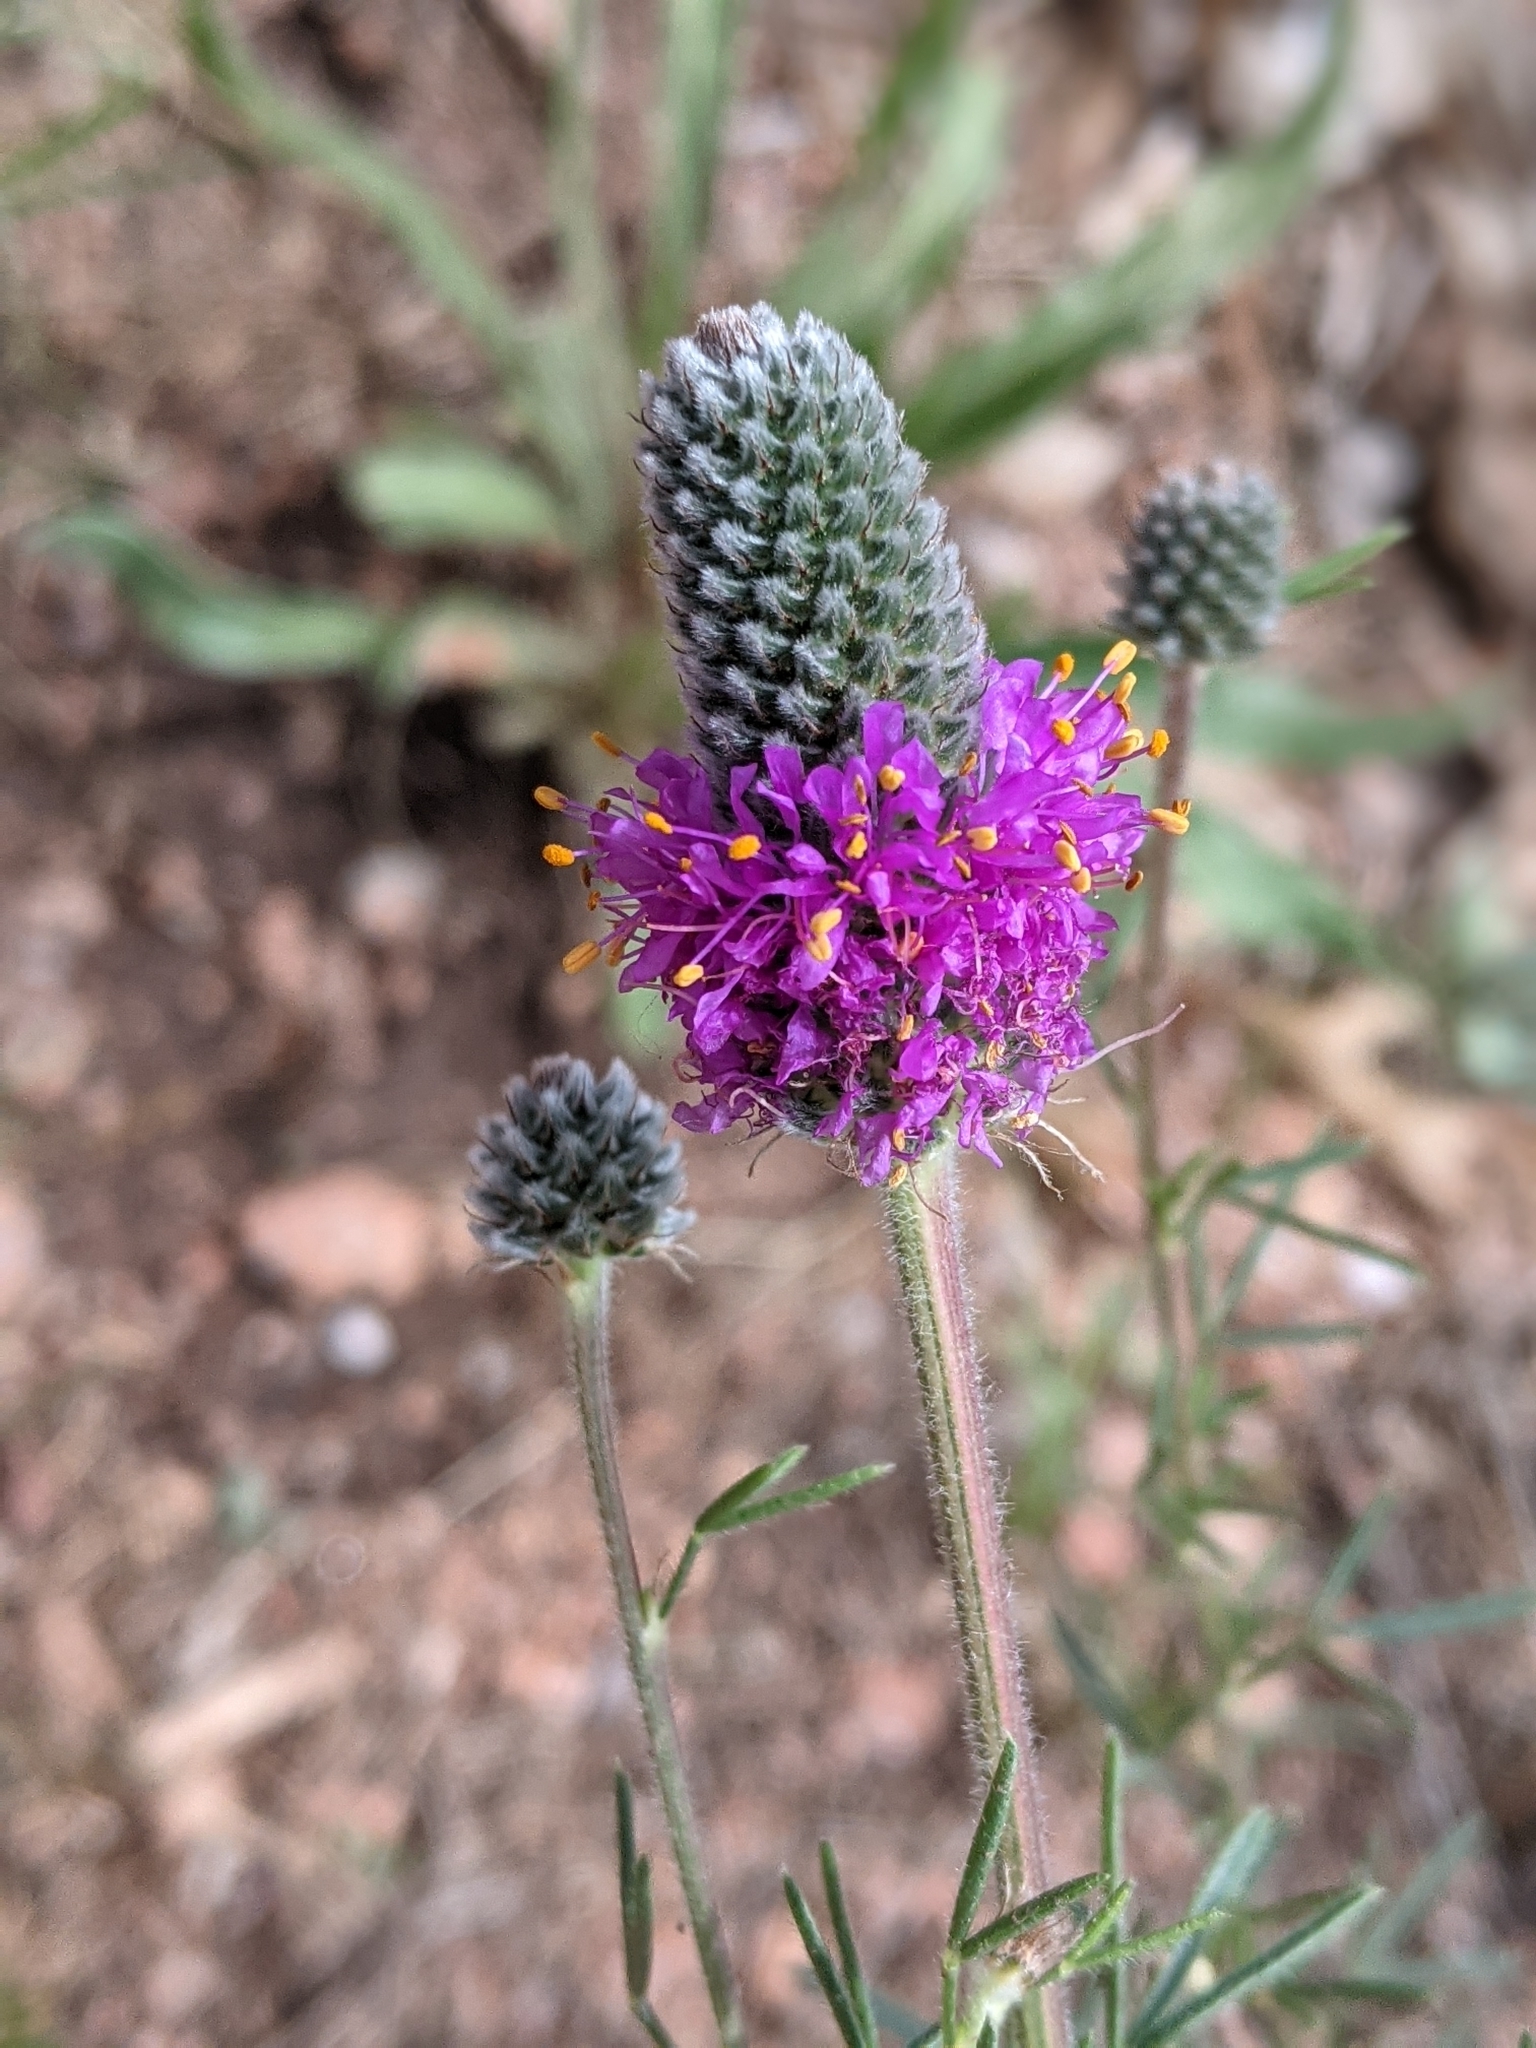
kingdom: Plantae
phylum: Tracheophyta
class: Magnoliopsida
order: Fabales
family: Fabaceae
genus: Dalea
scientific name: Dalea purpurea
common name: Purple prairie-clover
